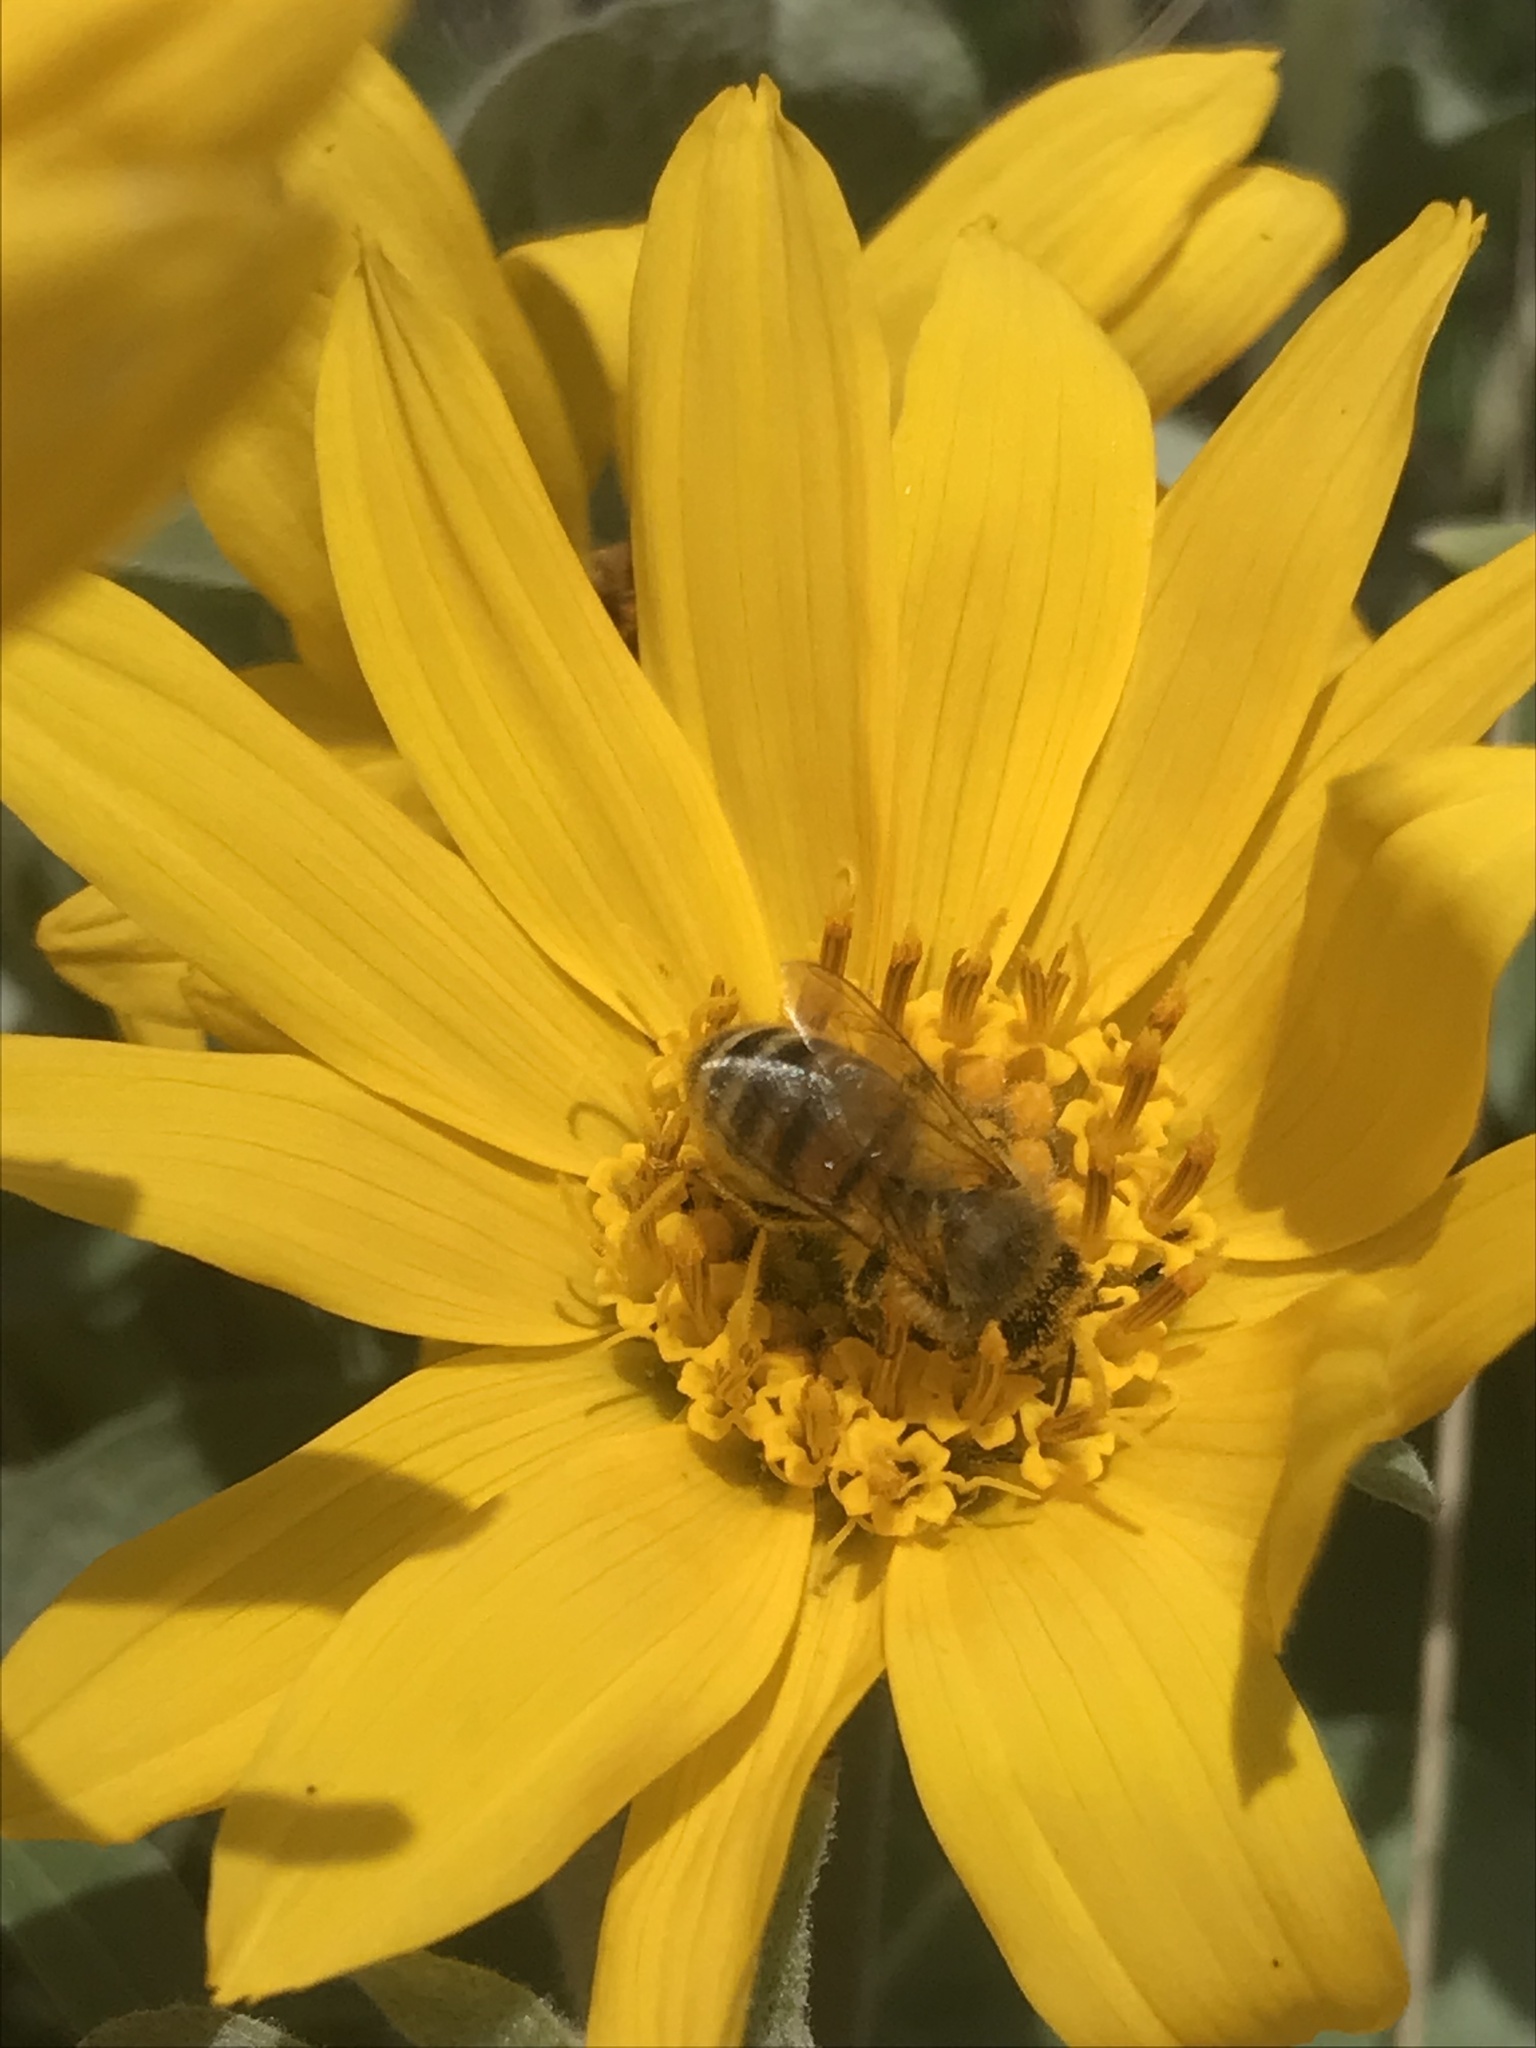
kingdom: Animalia
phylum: Arthropoda
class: Insecta
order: Hymenoptera
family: Apidae
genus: Apis
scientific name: Apis mellifera
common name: Honey bee
